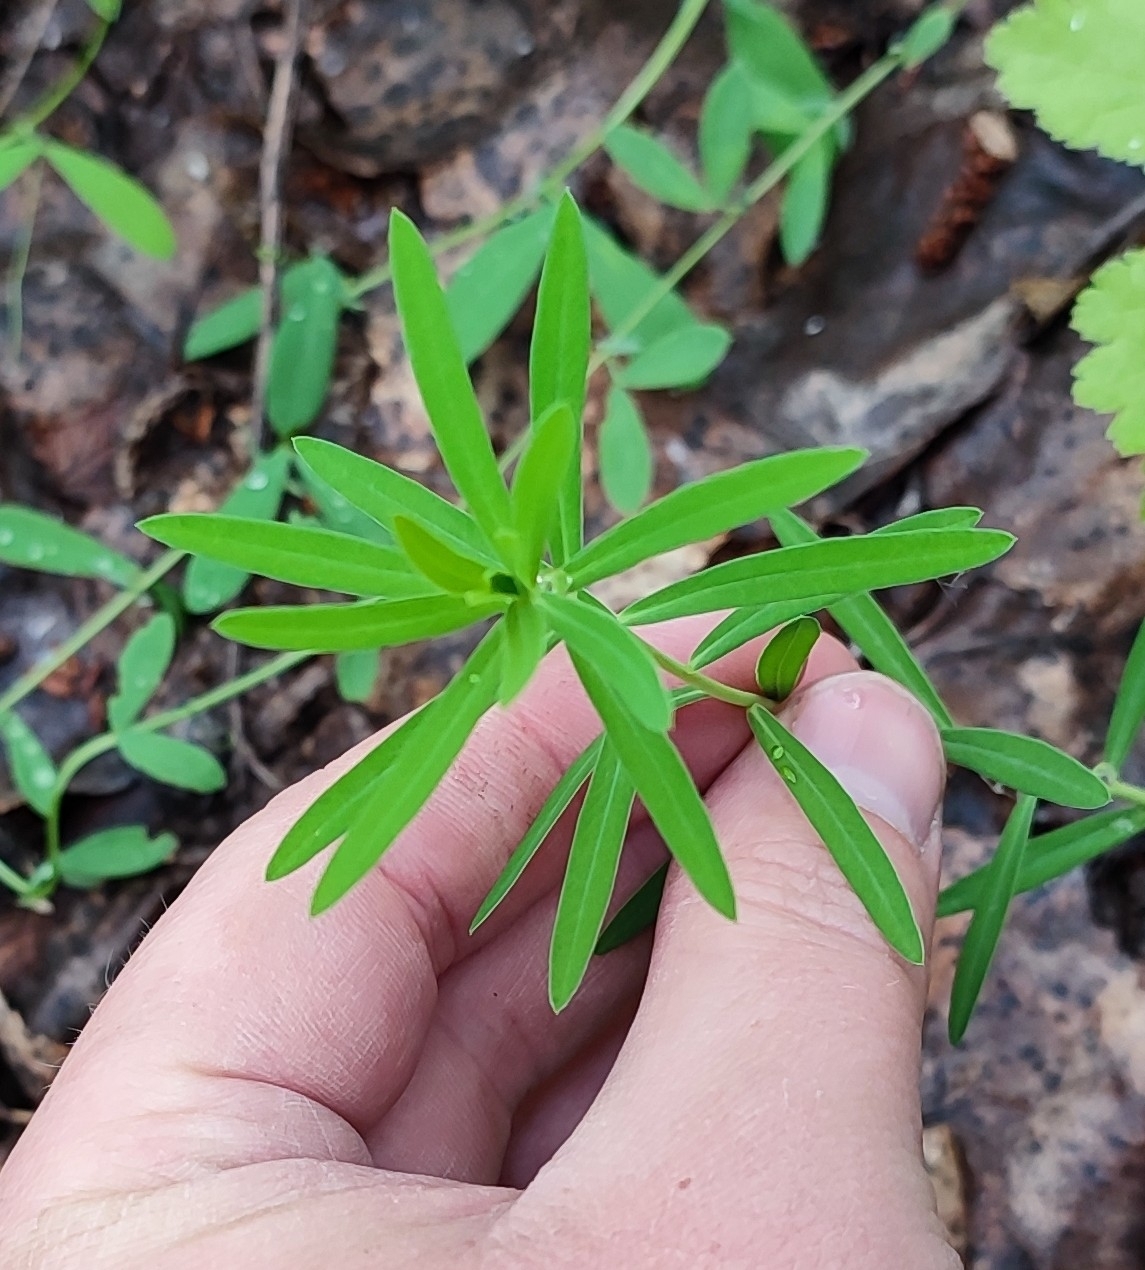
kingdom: Plantae
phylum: Tracheophyta
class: Magnoliopsida
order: Fabales
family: Fabaceae
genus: Trifolium
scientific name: Trifolium lupinaster
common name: Lupine clover
